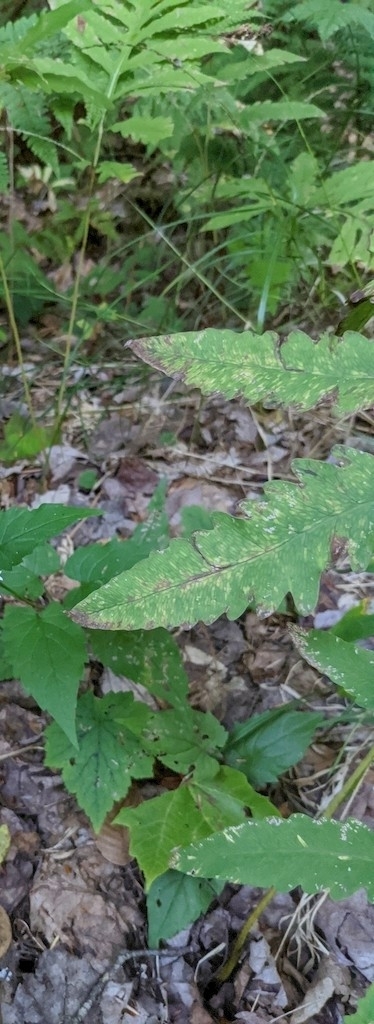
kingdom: Plantae
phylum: Tracheophyta
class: Polypodiopsida
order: Polypodiales
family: Onocleaceae
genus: Onoclea
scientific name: Onoclea sensibilis
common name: Sensitive fern
